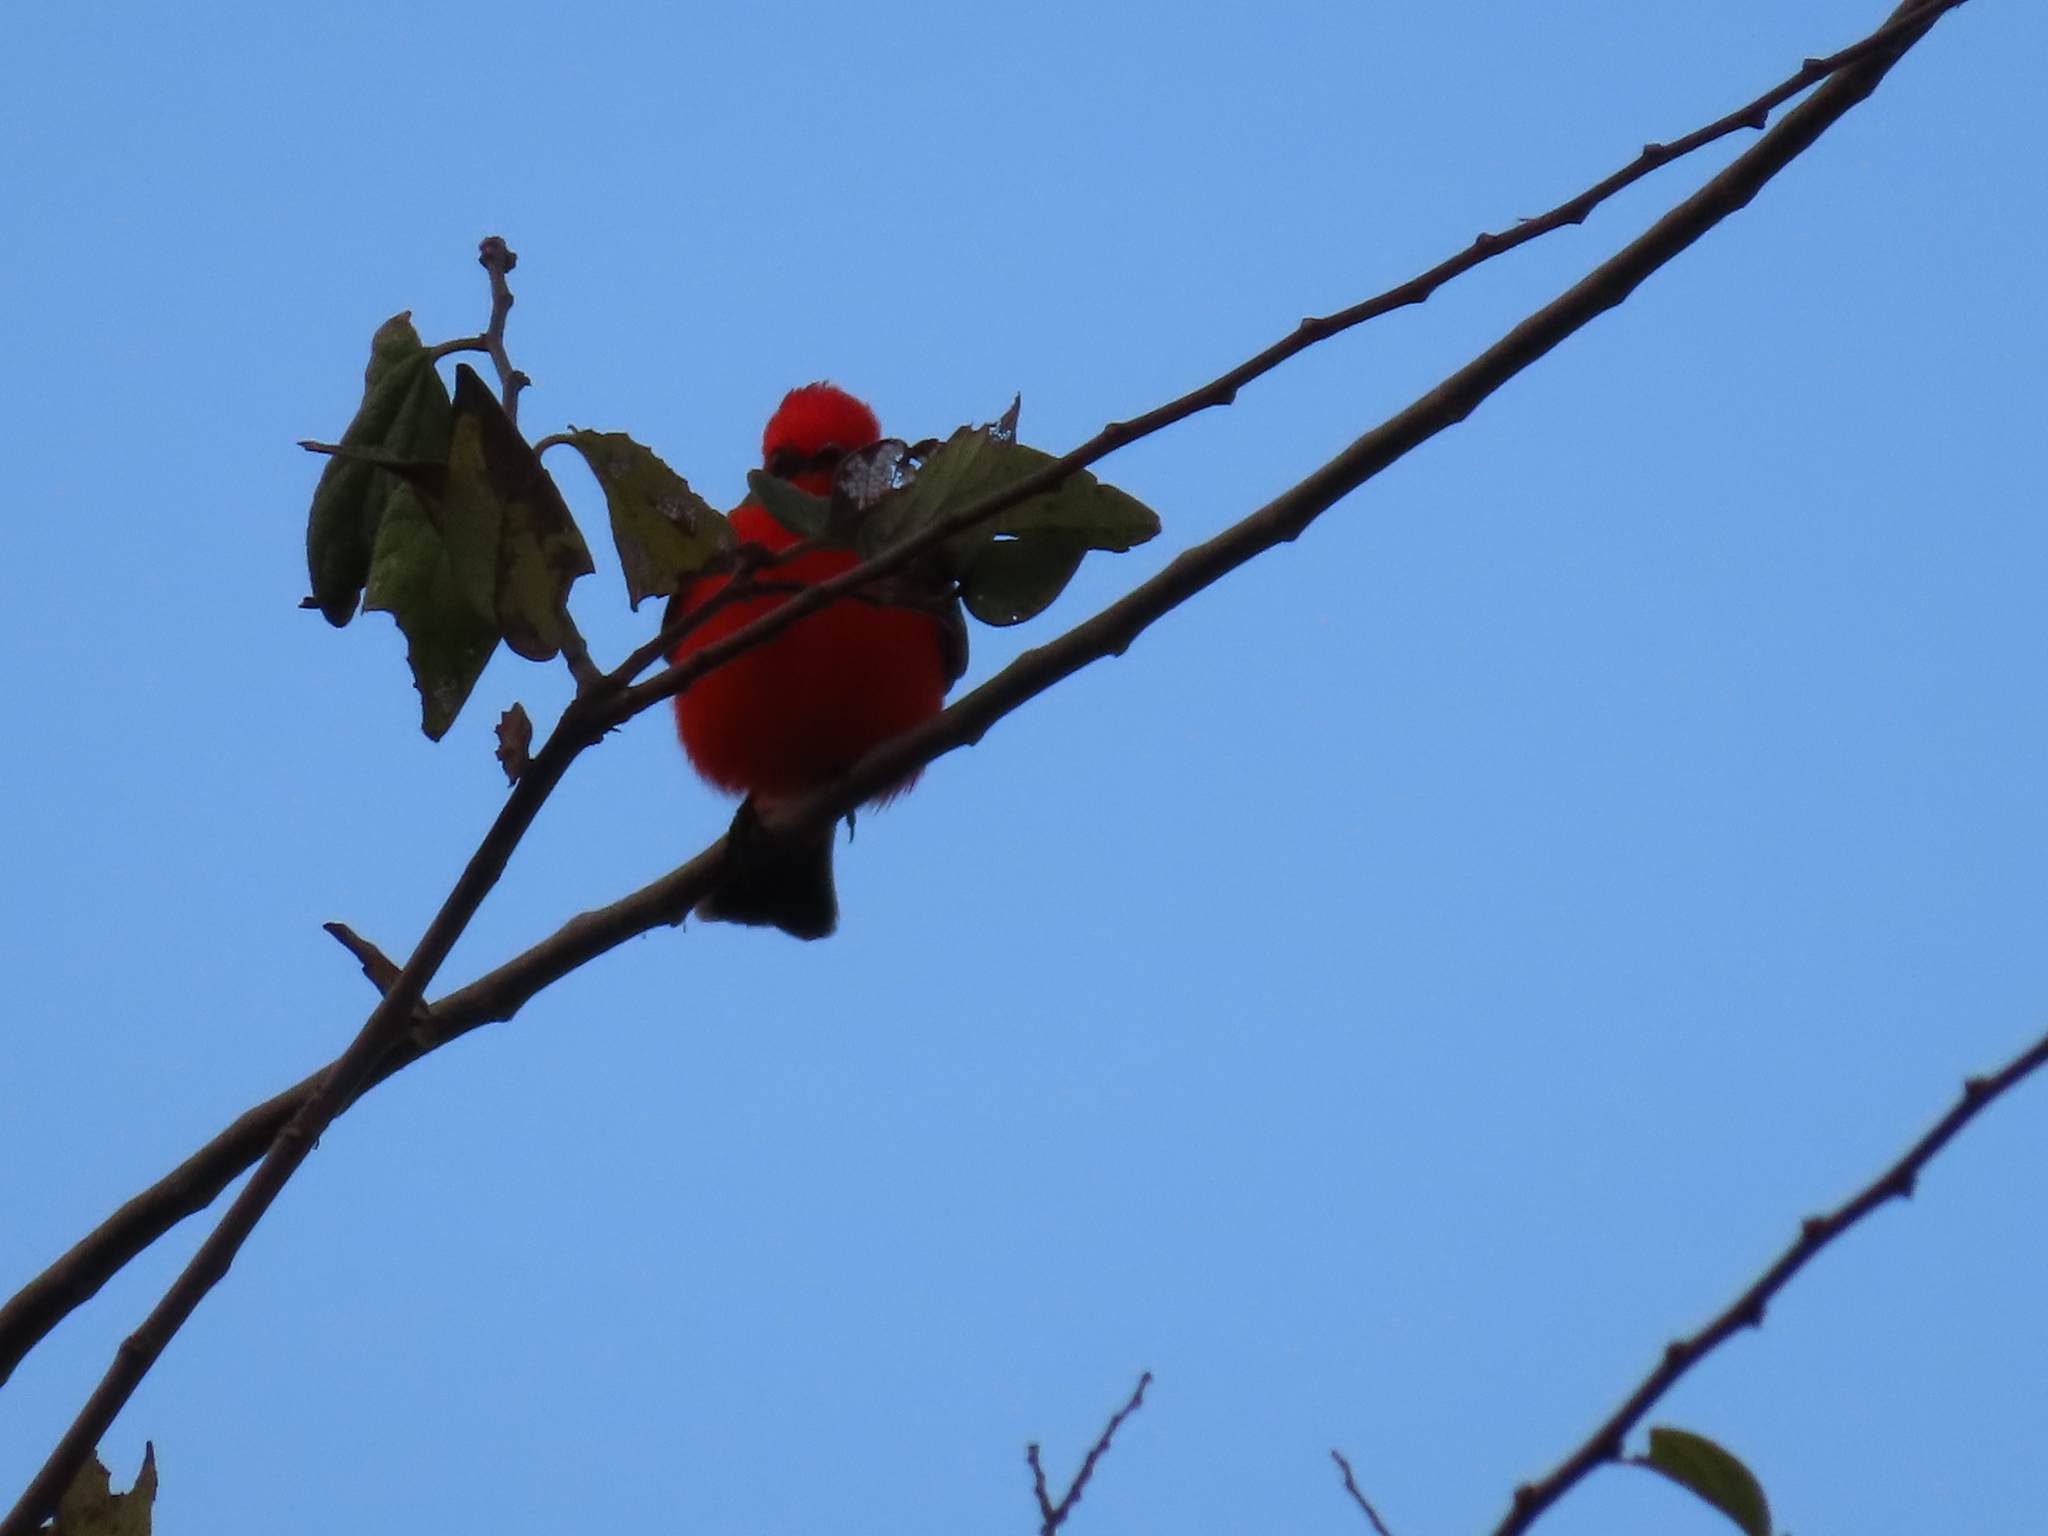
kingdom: Animalia
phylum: Chordata
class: Aves
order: Passeriformes
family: Tyrannidae
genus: Pyrocephalus
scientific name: Pyrocephalus rubinus
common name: Vermilion flycatcher
